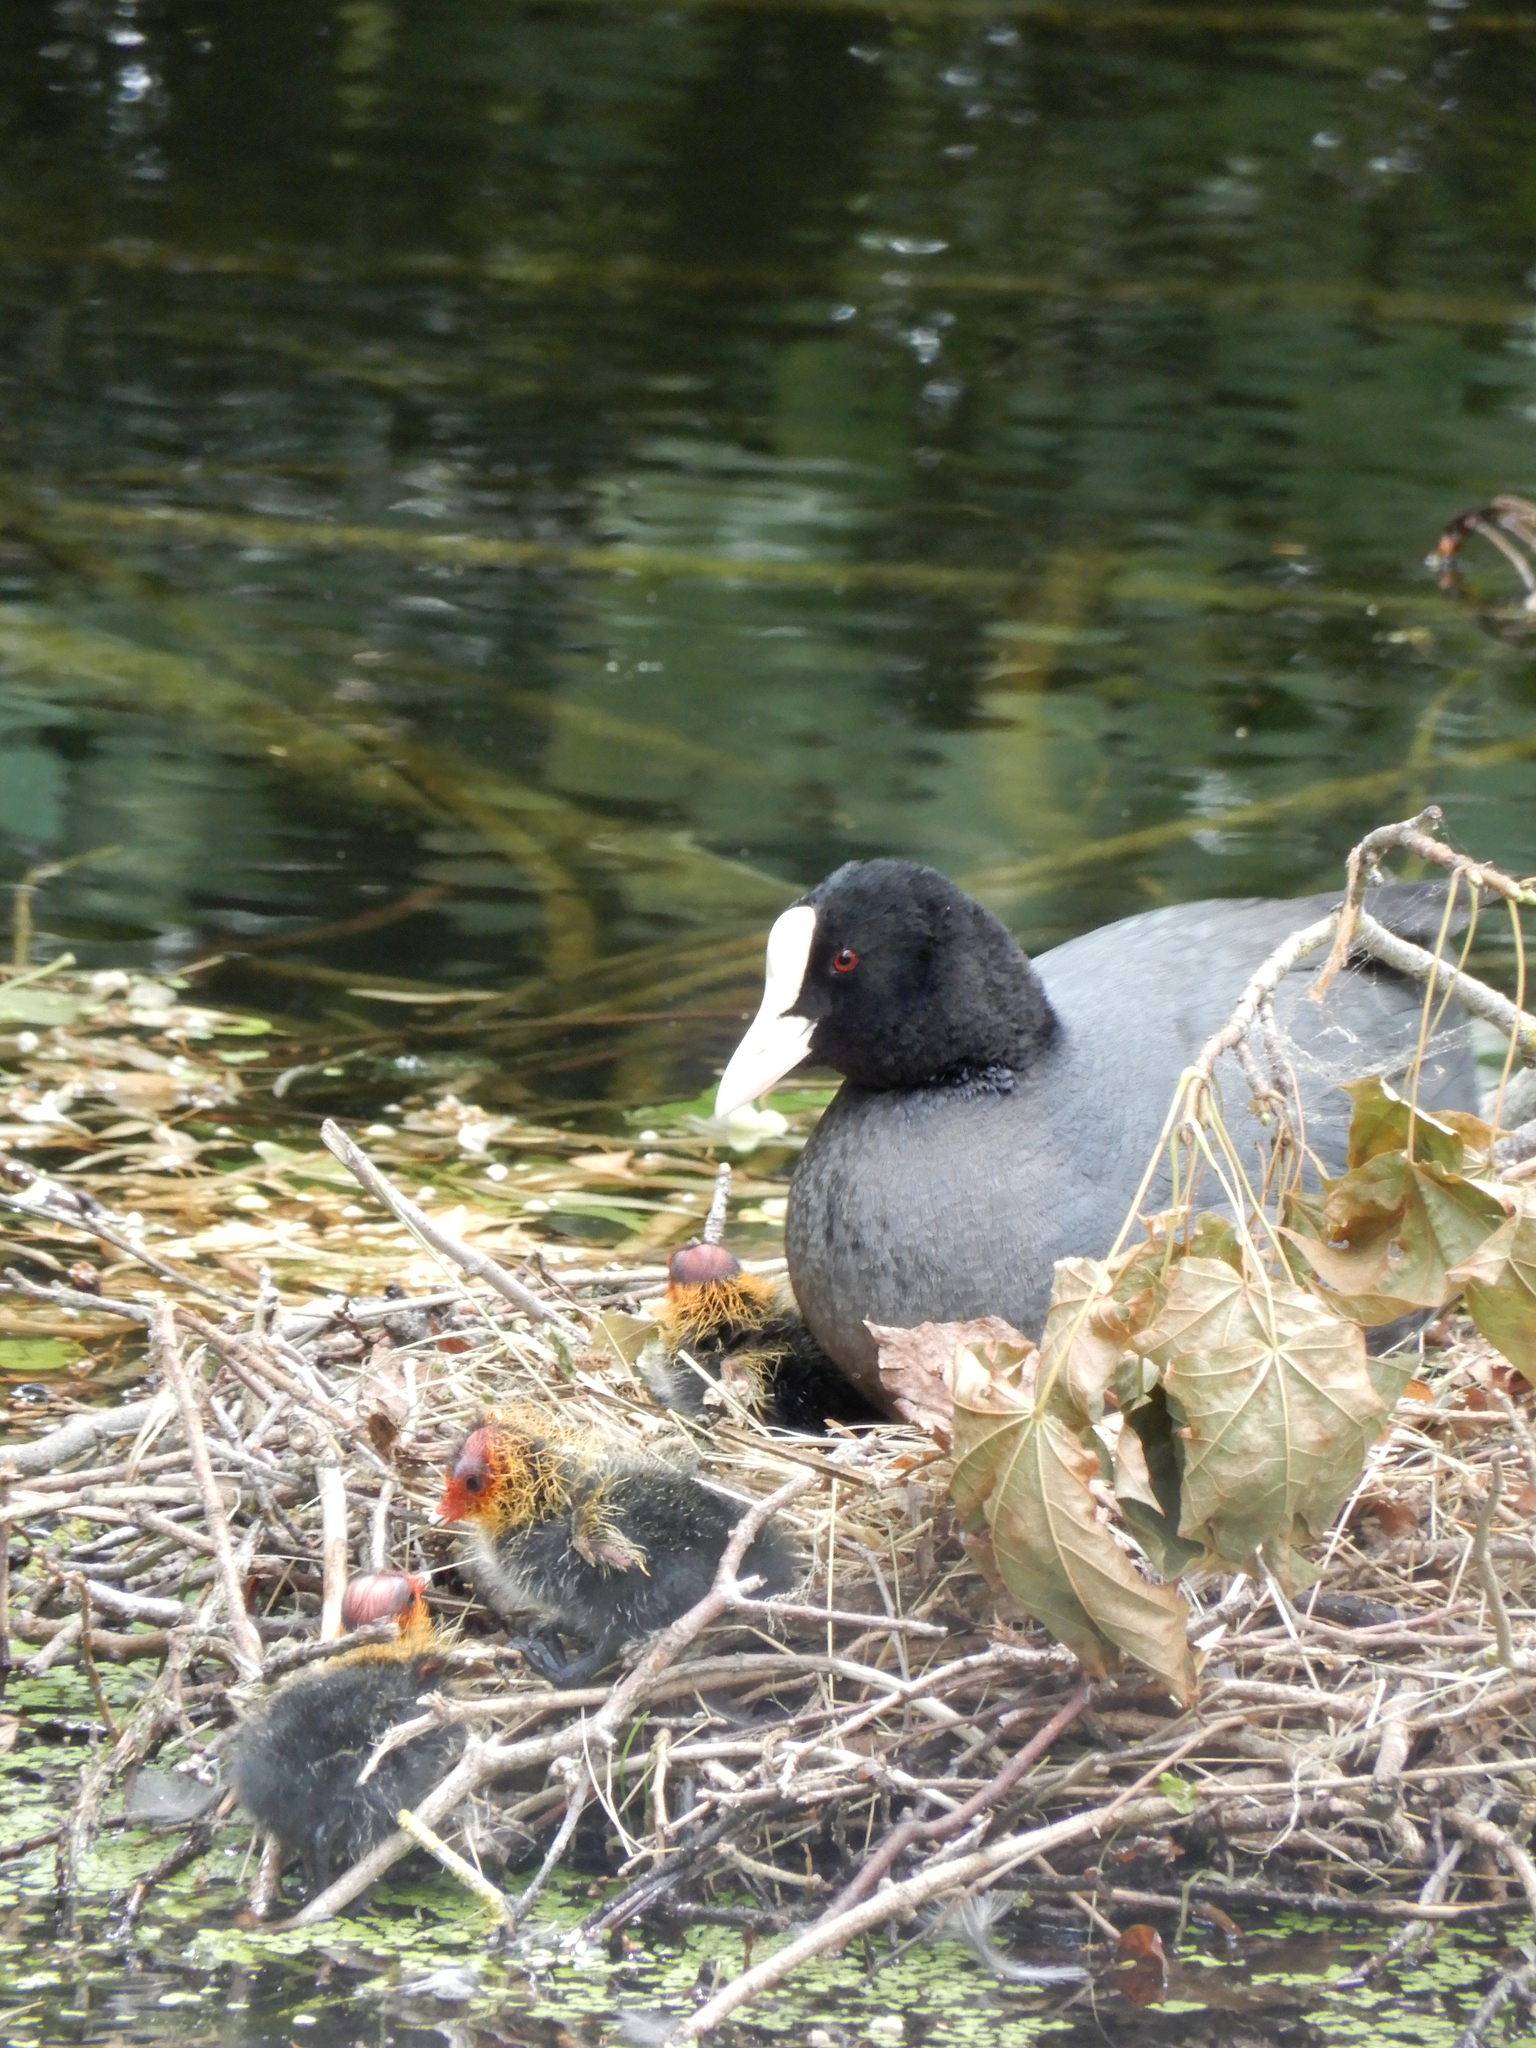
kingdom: Animalia
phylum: Chordata
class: Aves
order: Gruiformes
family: Rallidae
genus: Fulica
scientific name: Fulica atra
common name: Eurasian coot
